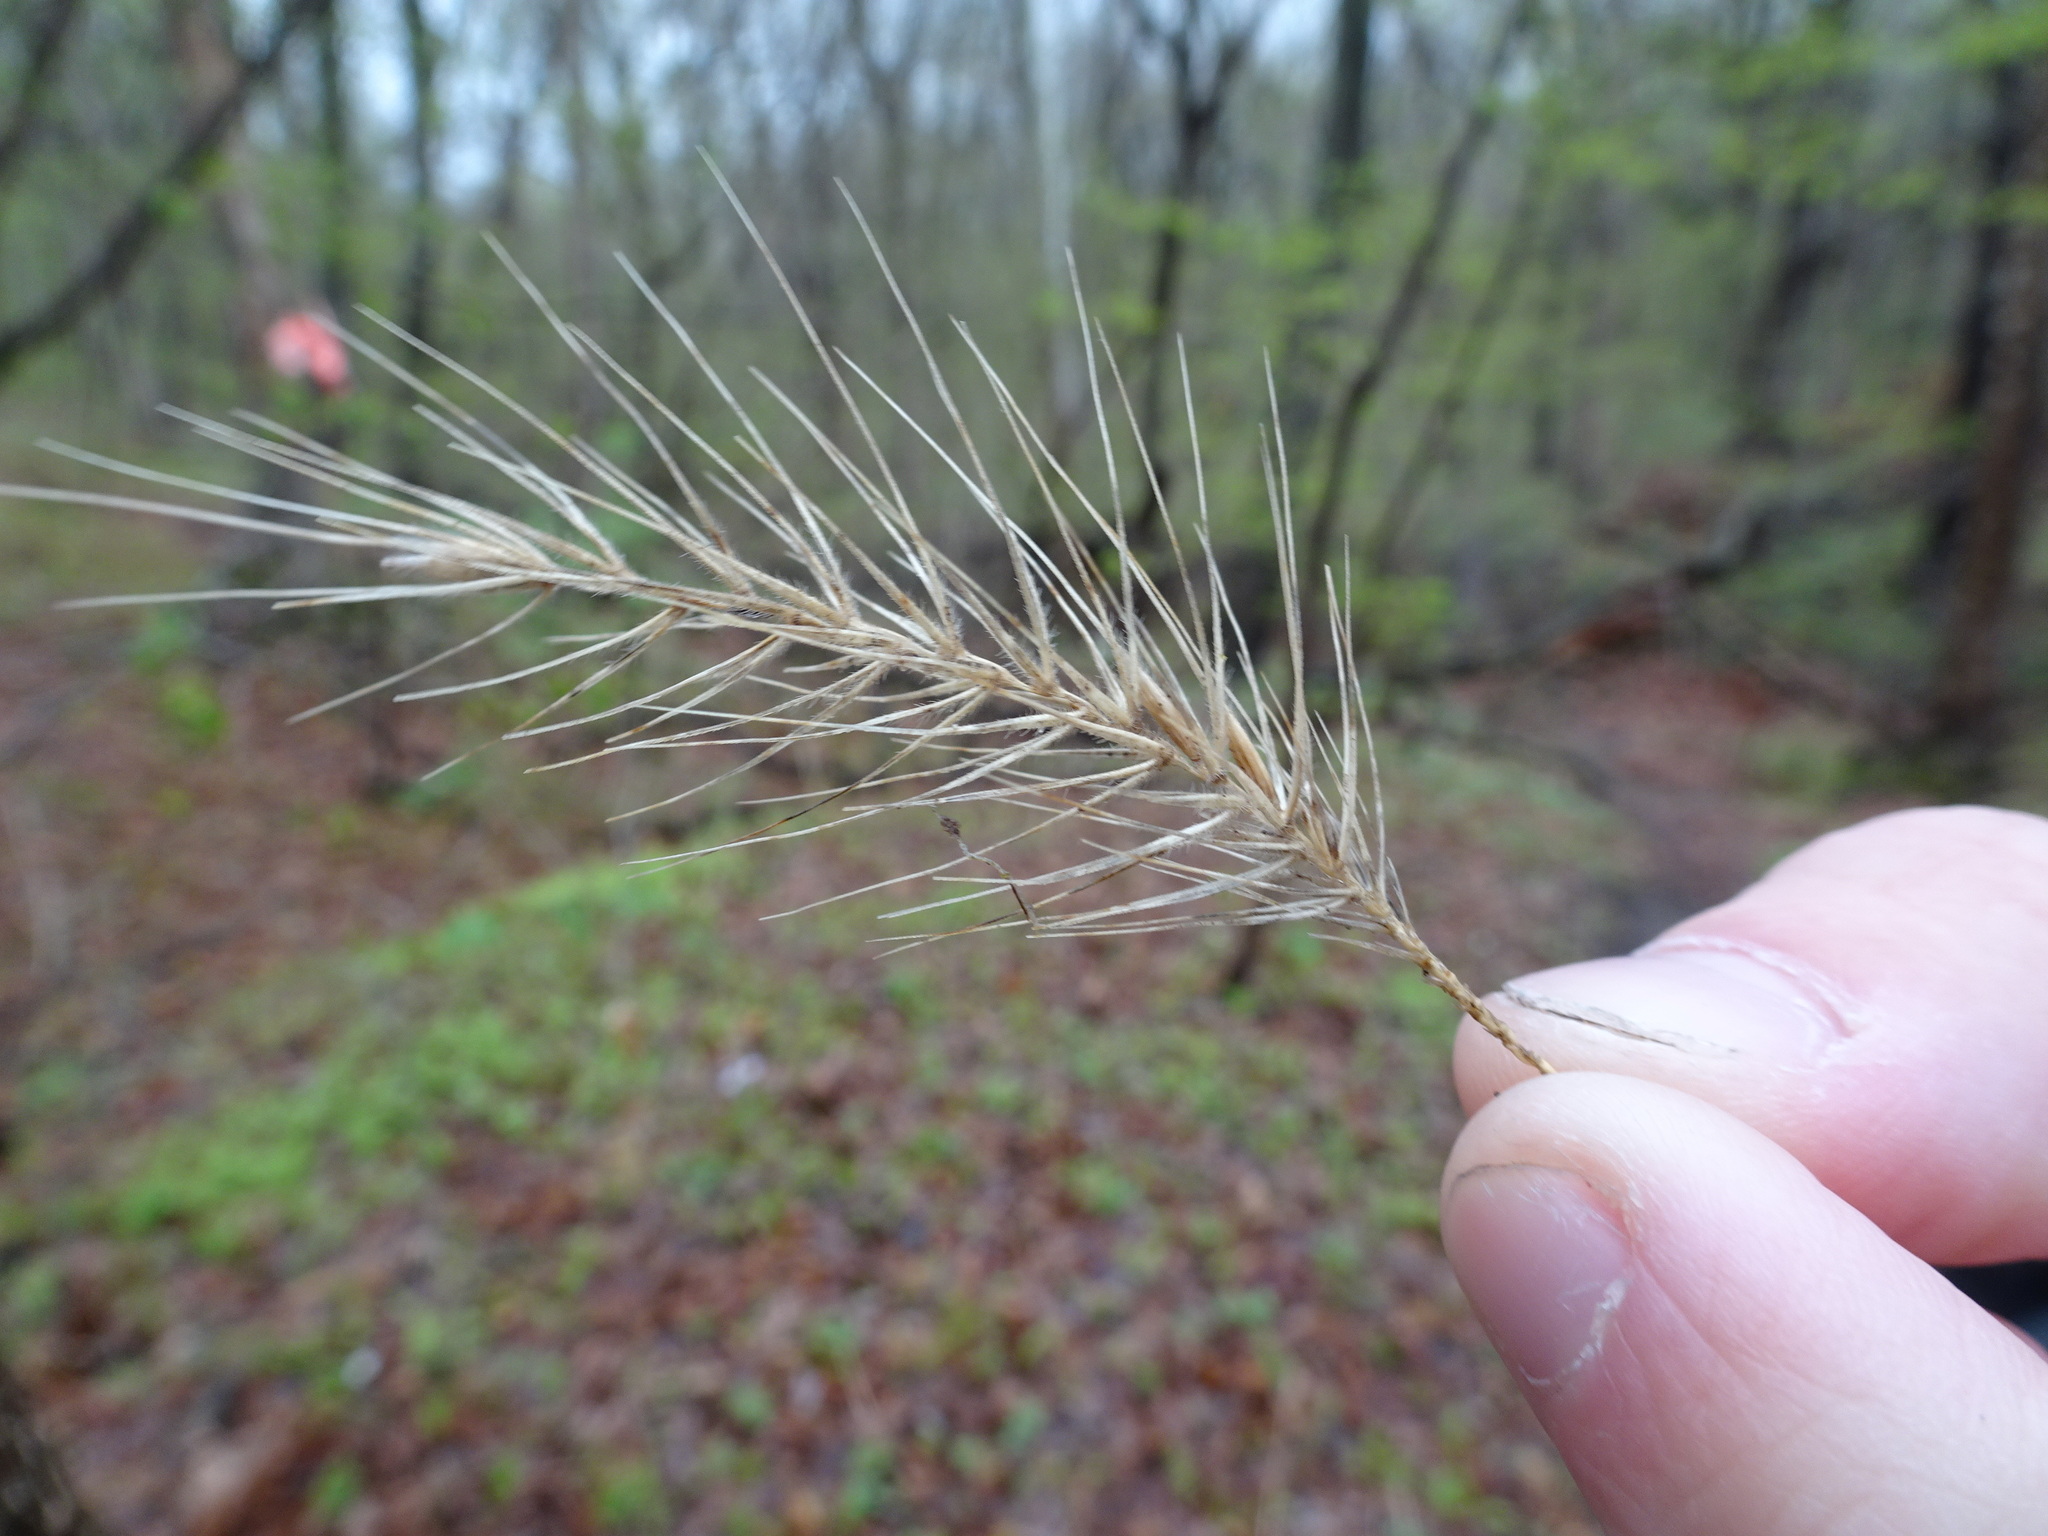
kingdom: Plantae
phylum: Tracheophyta
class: Liliopsida
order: Poales
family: Poaceae
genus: Elymus
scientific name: Elymus villosus
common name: Downy wild rye
